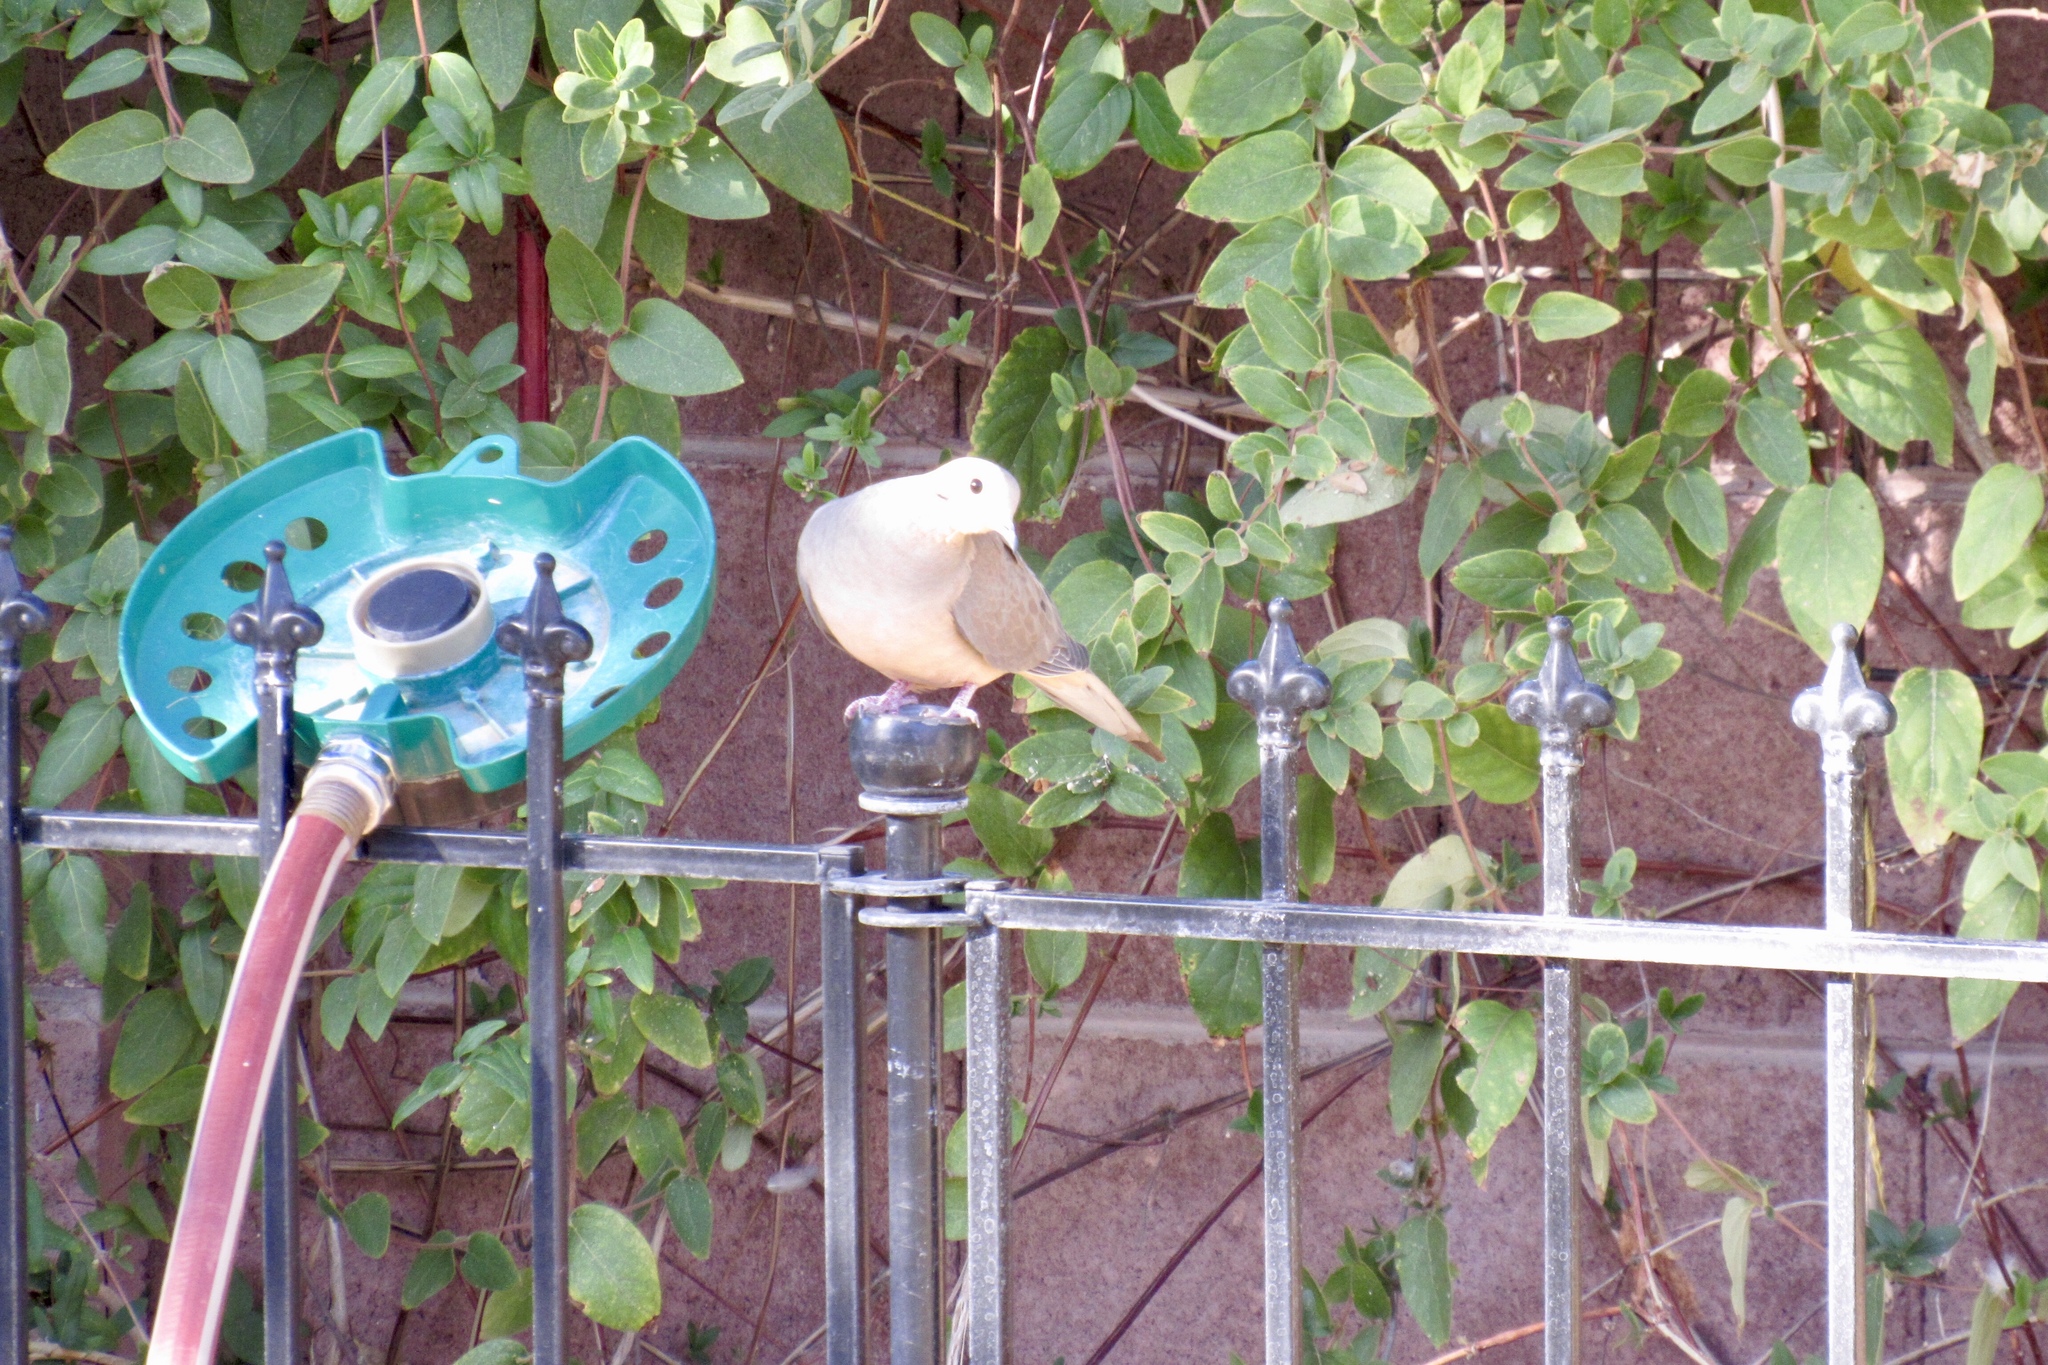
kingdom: Animalia
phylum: Chordata
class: Aves
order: Columbiformes
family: Columbidae
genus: Zenaida
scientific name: Zenaida macroura
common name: Mourning dove
